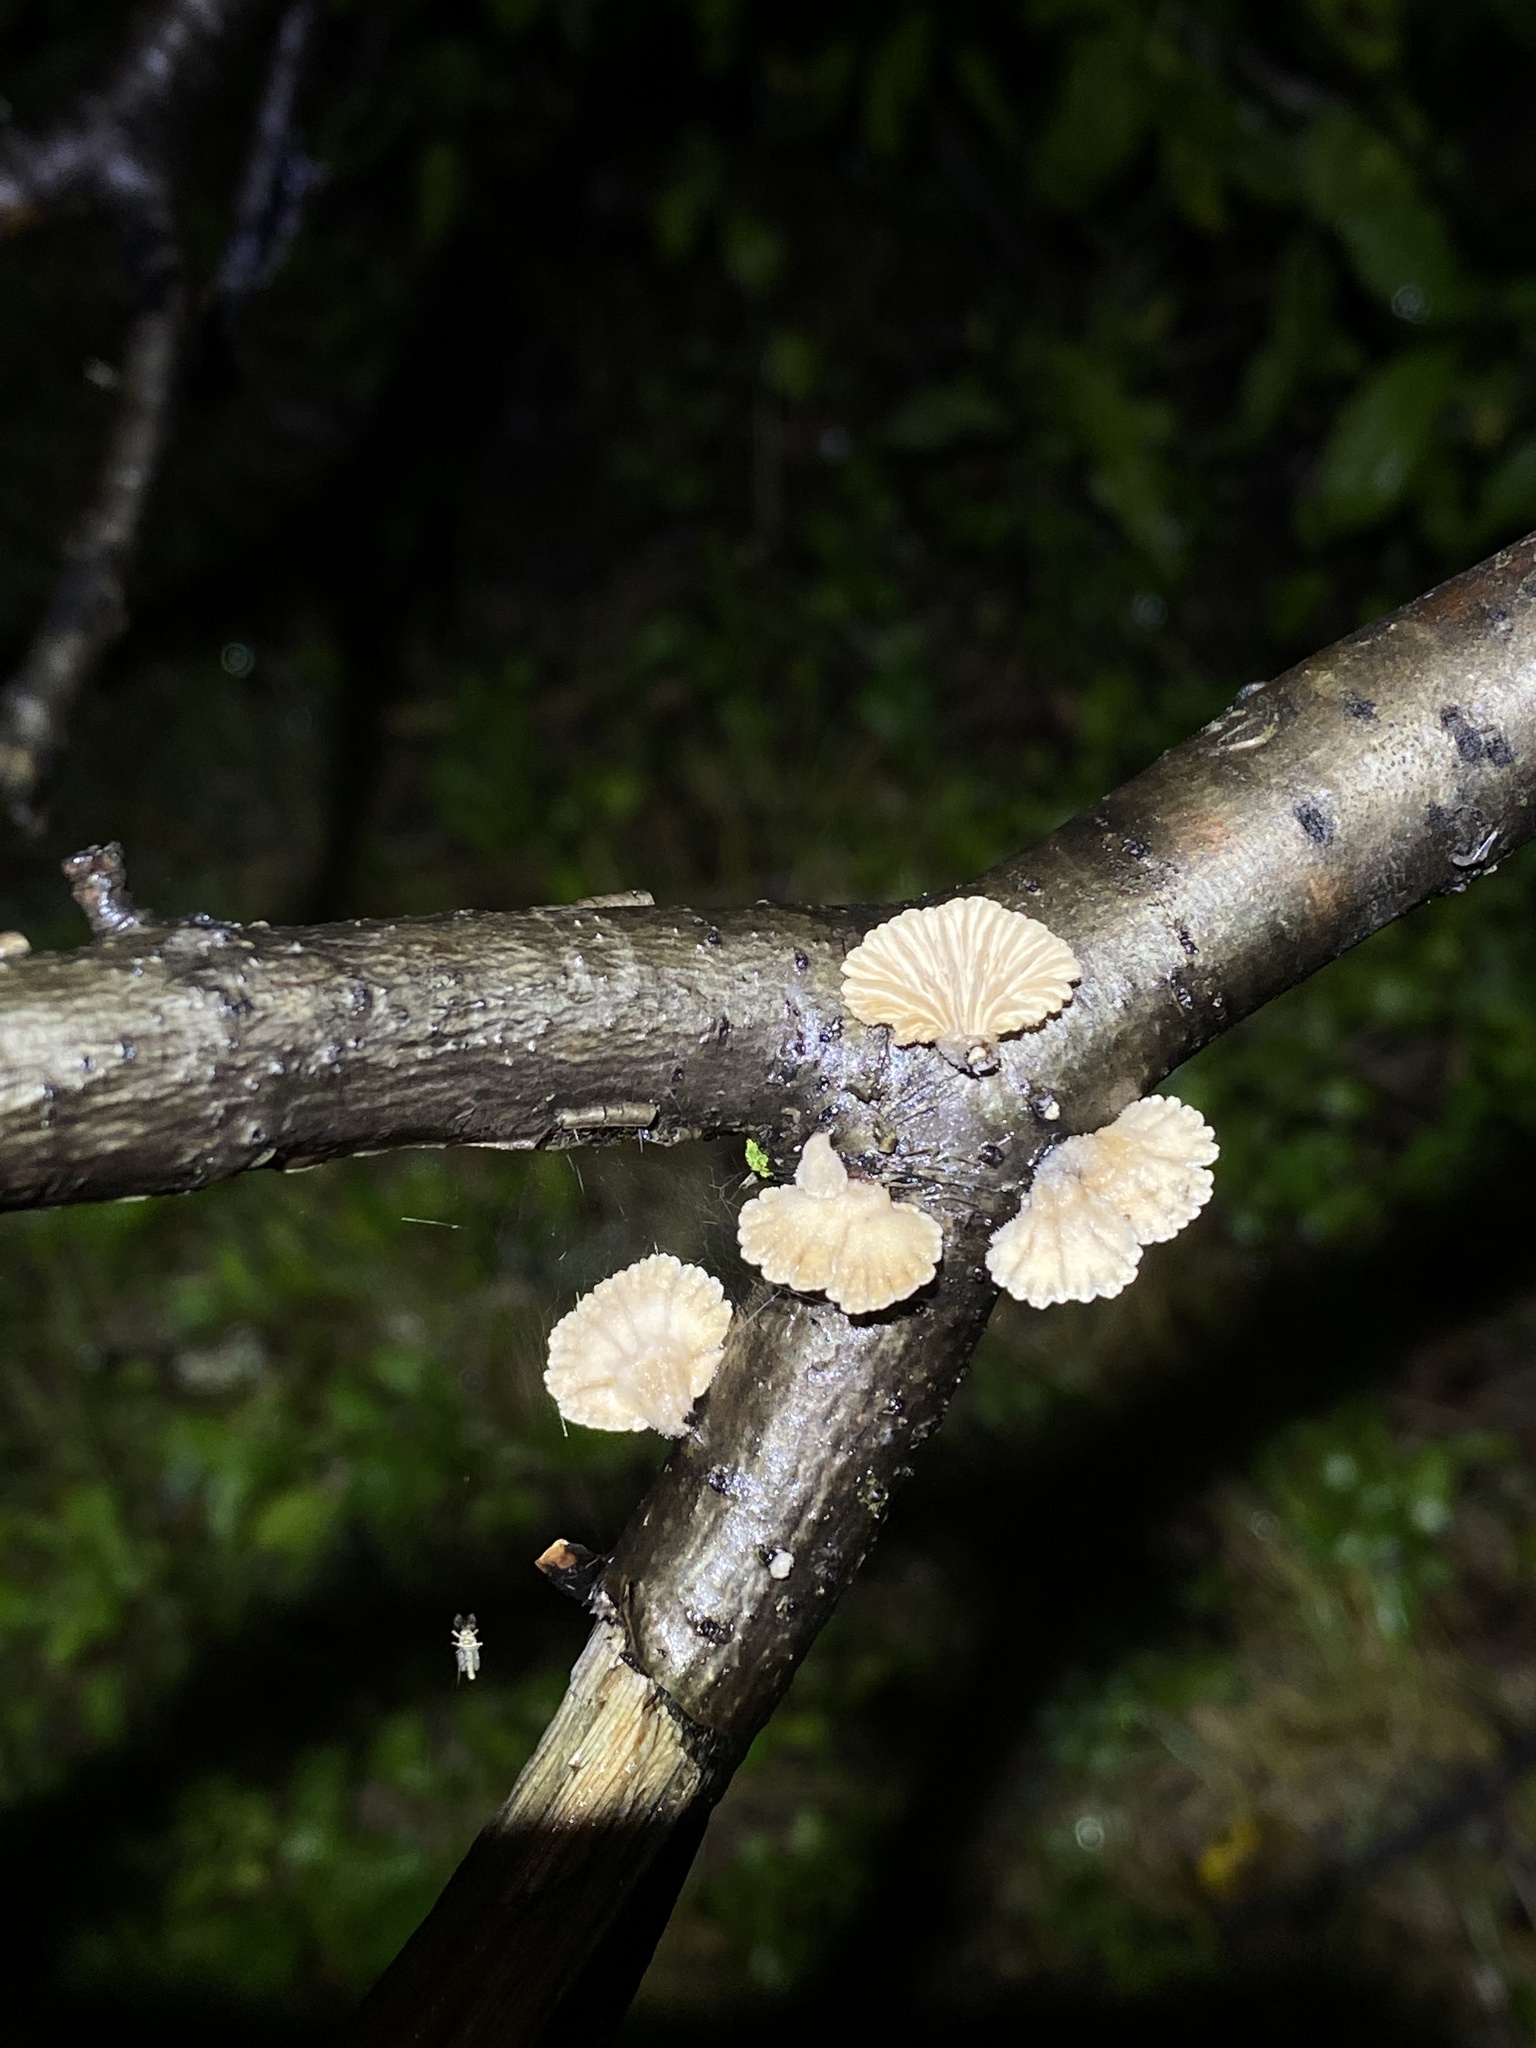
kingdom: Fungi
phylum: Basidiomycota
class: Agaricomycetes
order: Agaricales
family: Schizophyllaceae
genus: Schizophyllum
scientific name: Schizophyllum commune
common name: Common porecrust
